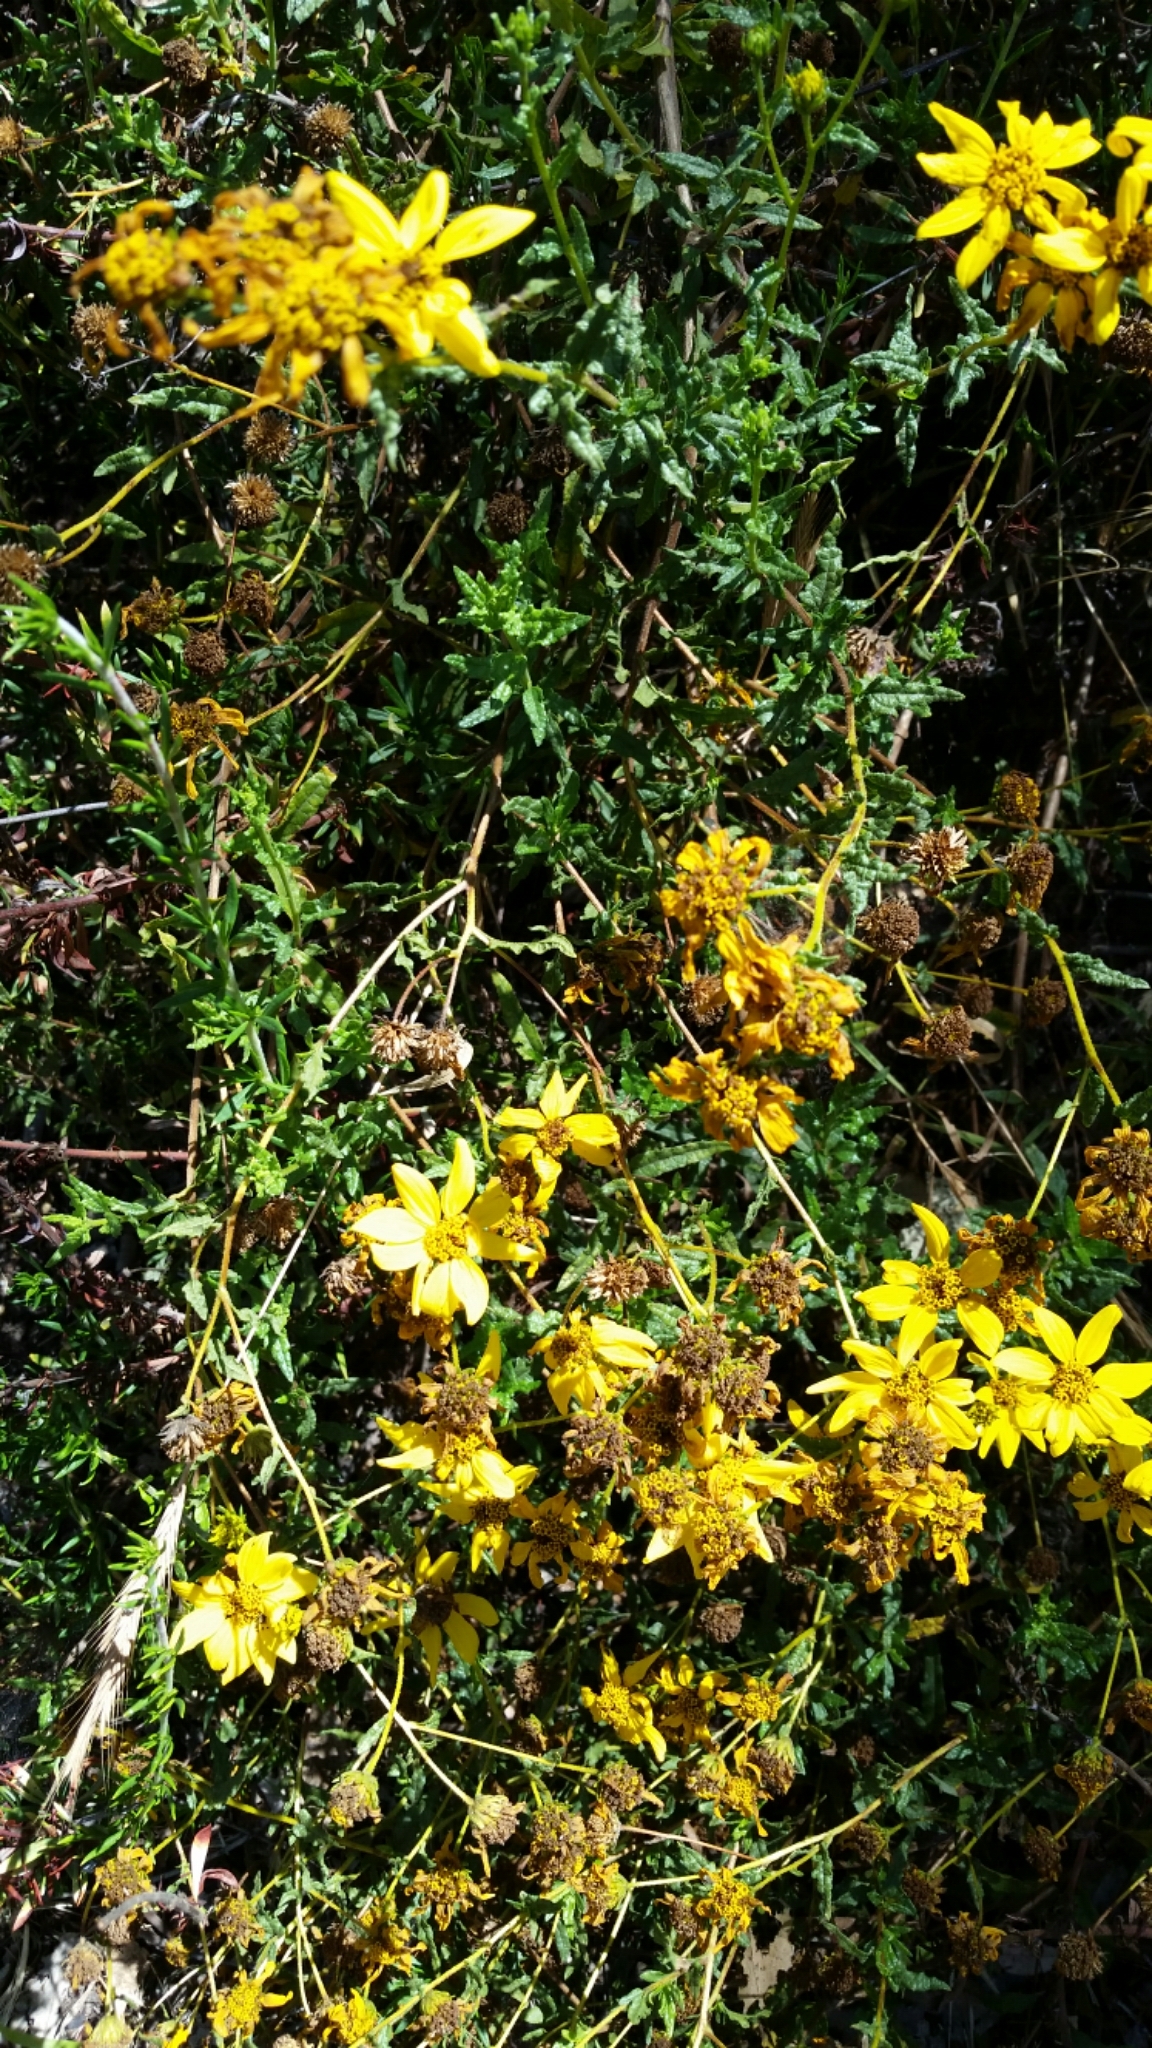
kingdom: Plantae
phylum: Tracheophyta
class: Magnoliopsida
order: Asterales
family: Asteraceae
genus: Bahiopsis
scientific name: Bahiopsis laciniata
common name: San diego county viguiera
